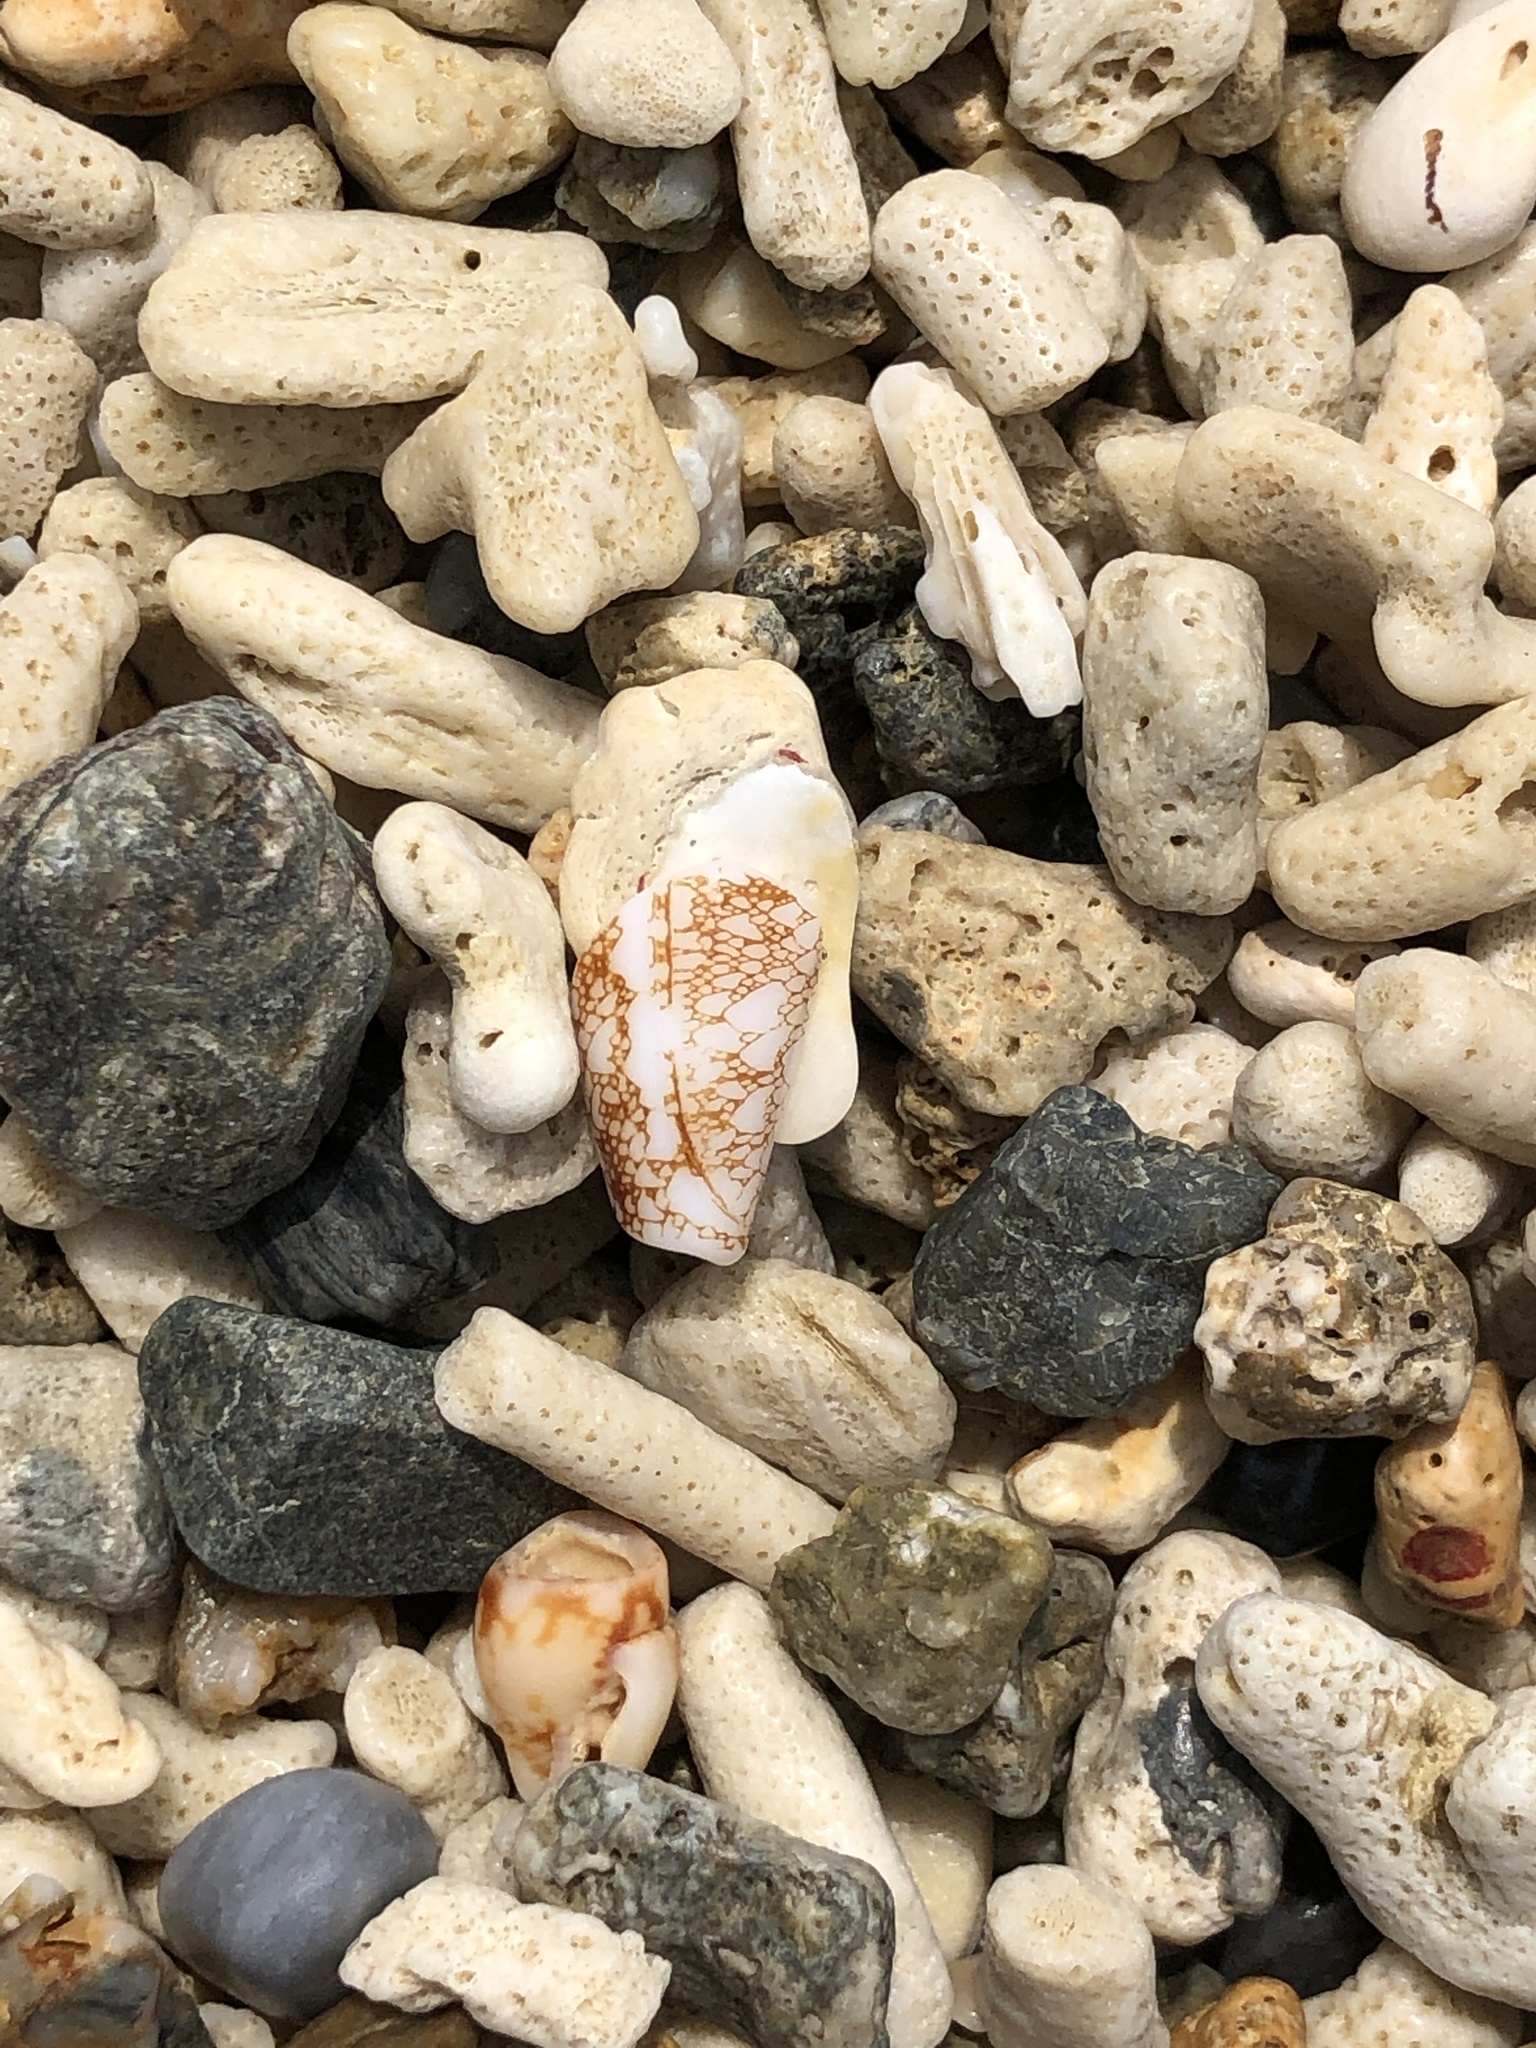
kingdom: Animalia
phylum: Mollusca
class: Gastropoda
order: Neogastropoda
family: Conidae
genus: Conus
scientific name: Conus omaria
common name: Omaria cone
